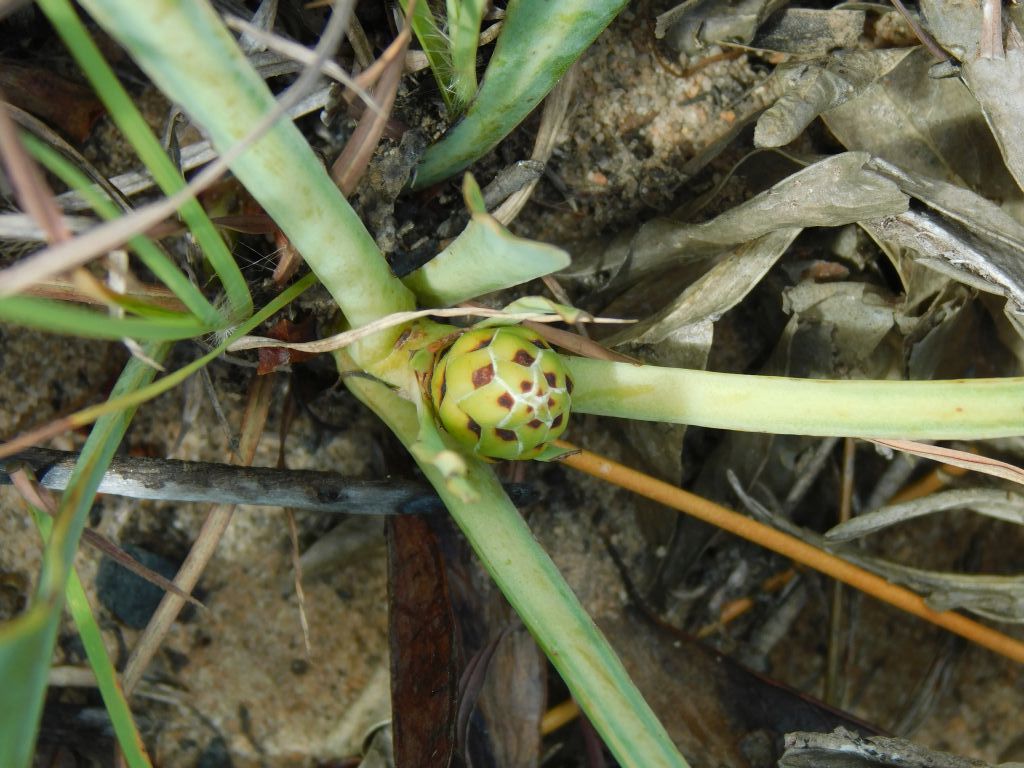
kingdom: Plantae
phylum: Tracheophyta
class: Magnoliopsida
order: Proteales
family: Proteaceae
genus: Protea
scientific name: Protea acaulos
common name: Common ground sugarbush
